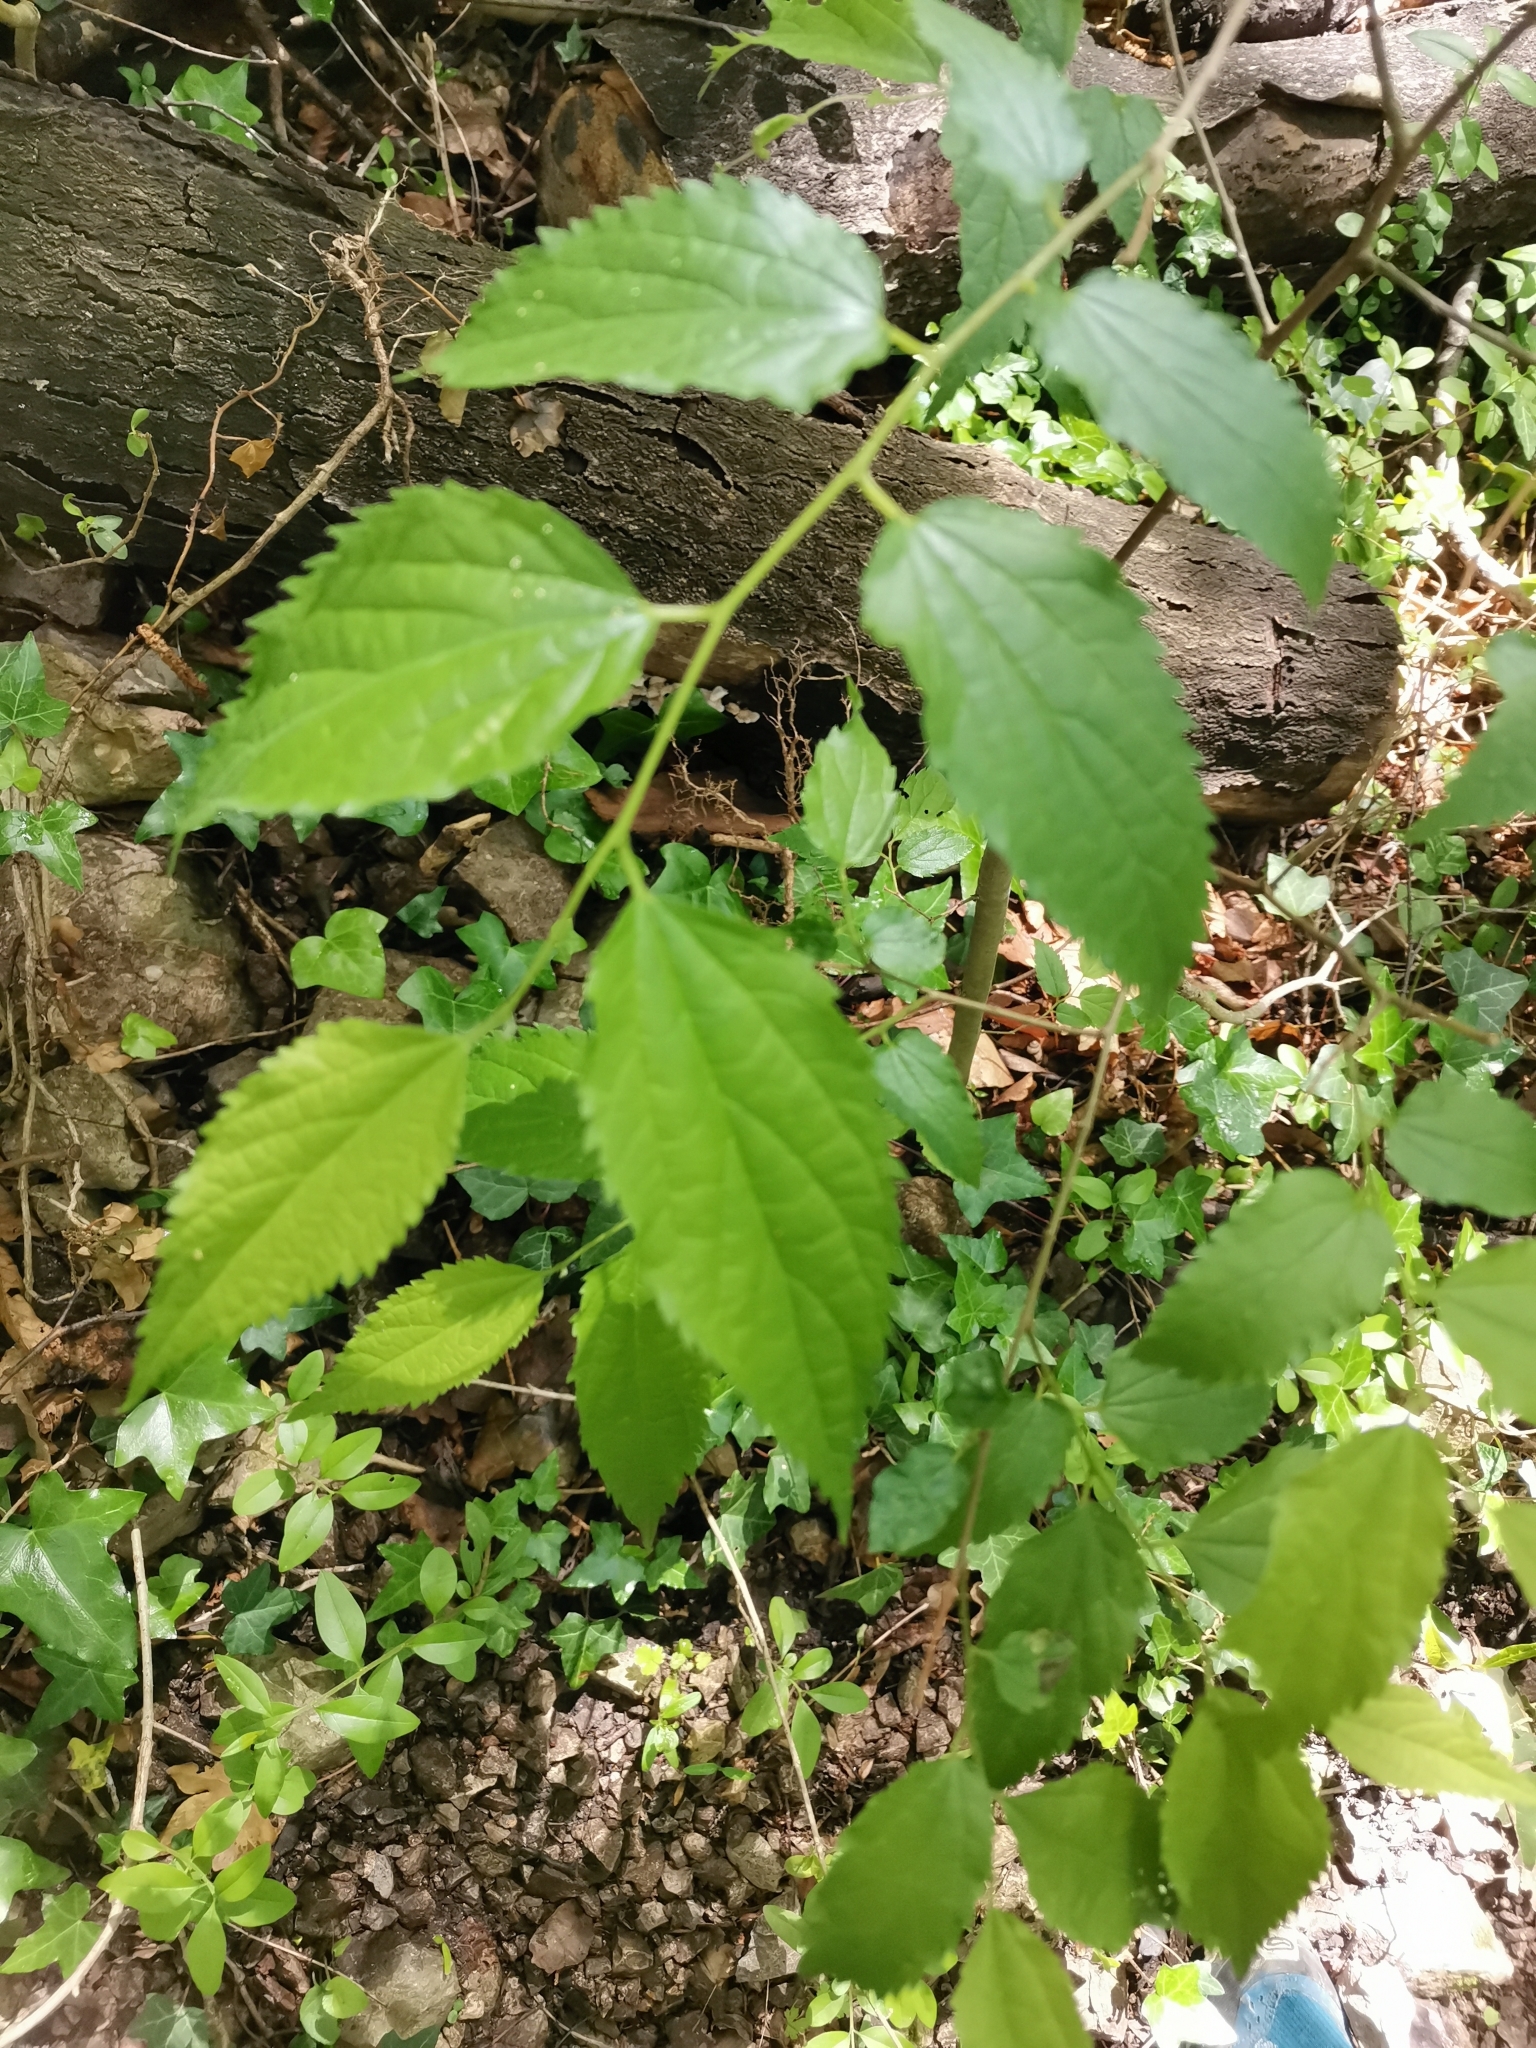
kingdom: Plantae
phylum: Tracheophyta
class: Magnoliopsida
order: Rosales
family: Cannabaceae
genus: Celtis
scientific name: Celtis australis
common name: European hackberry
